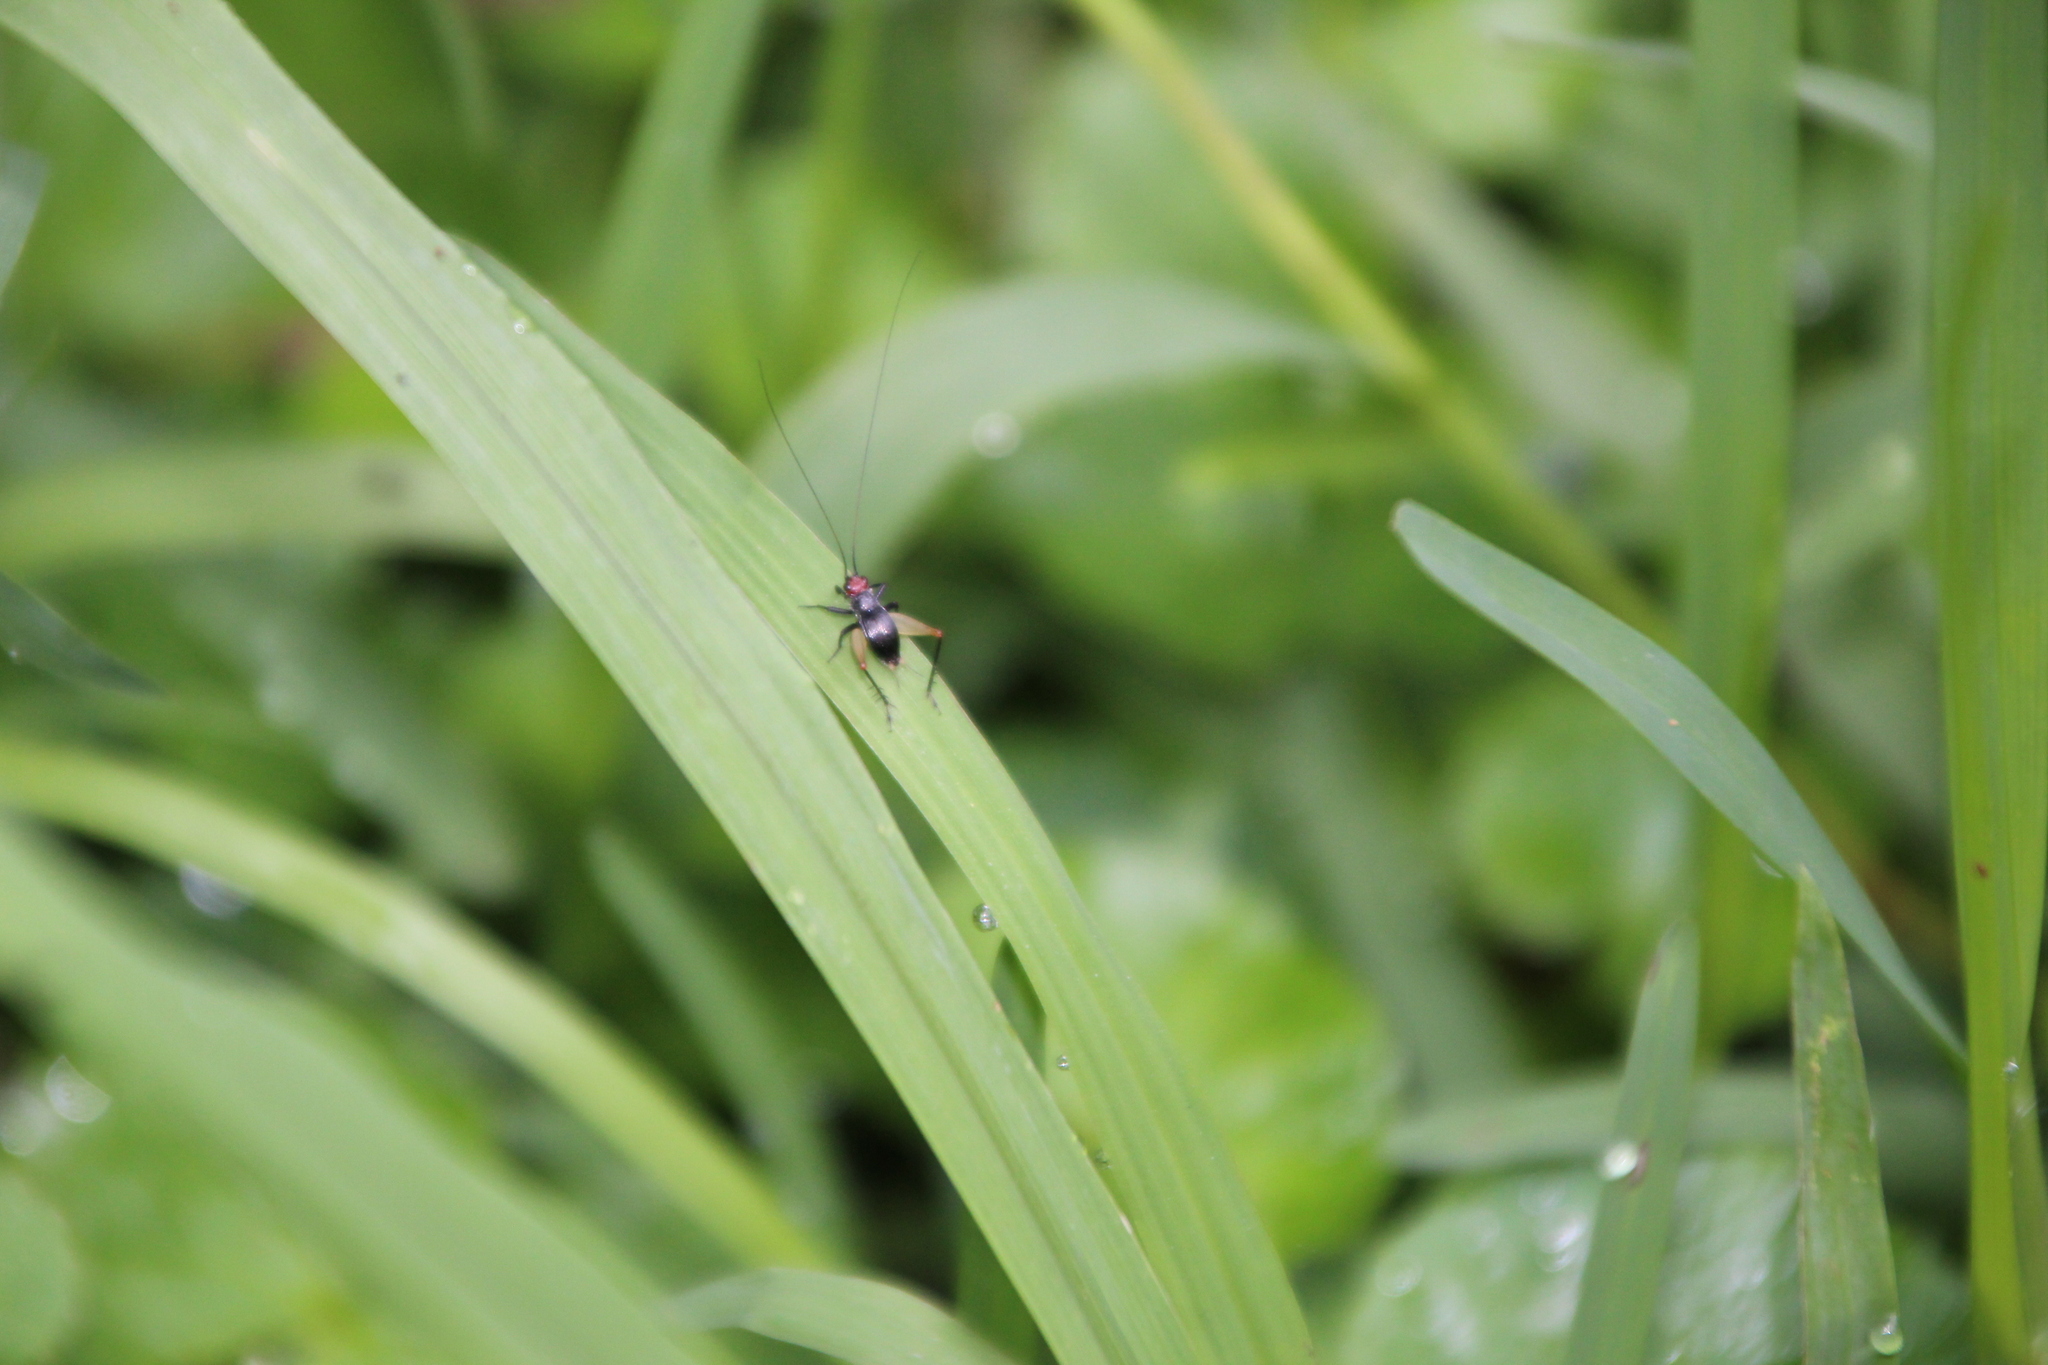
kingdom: Animalia
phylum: Arthropoda
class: Insecta
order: Orthoptera
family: Trigonidiidae
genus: Trigonidium
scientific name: Trigonidium erythrocephalum
